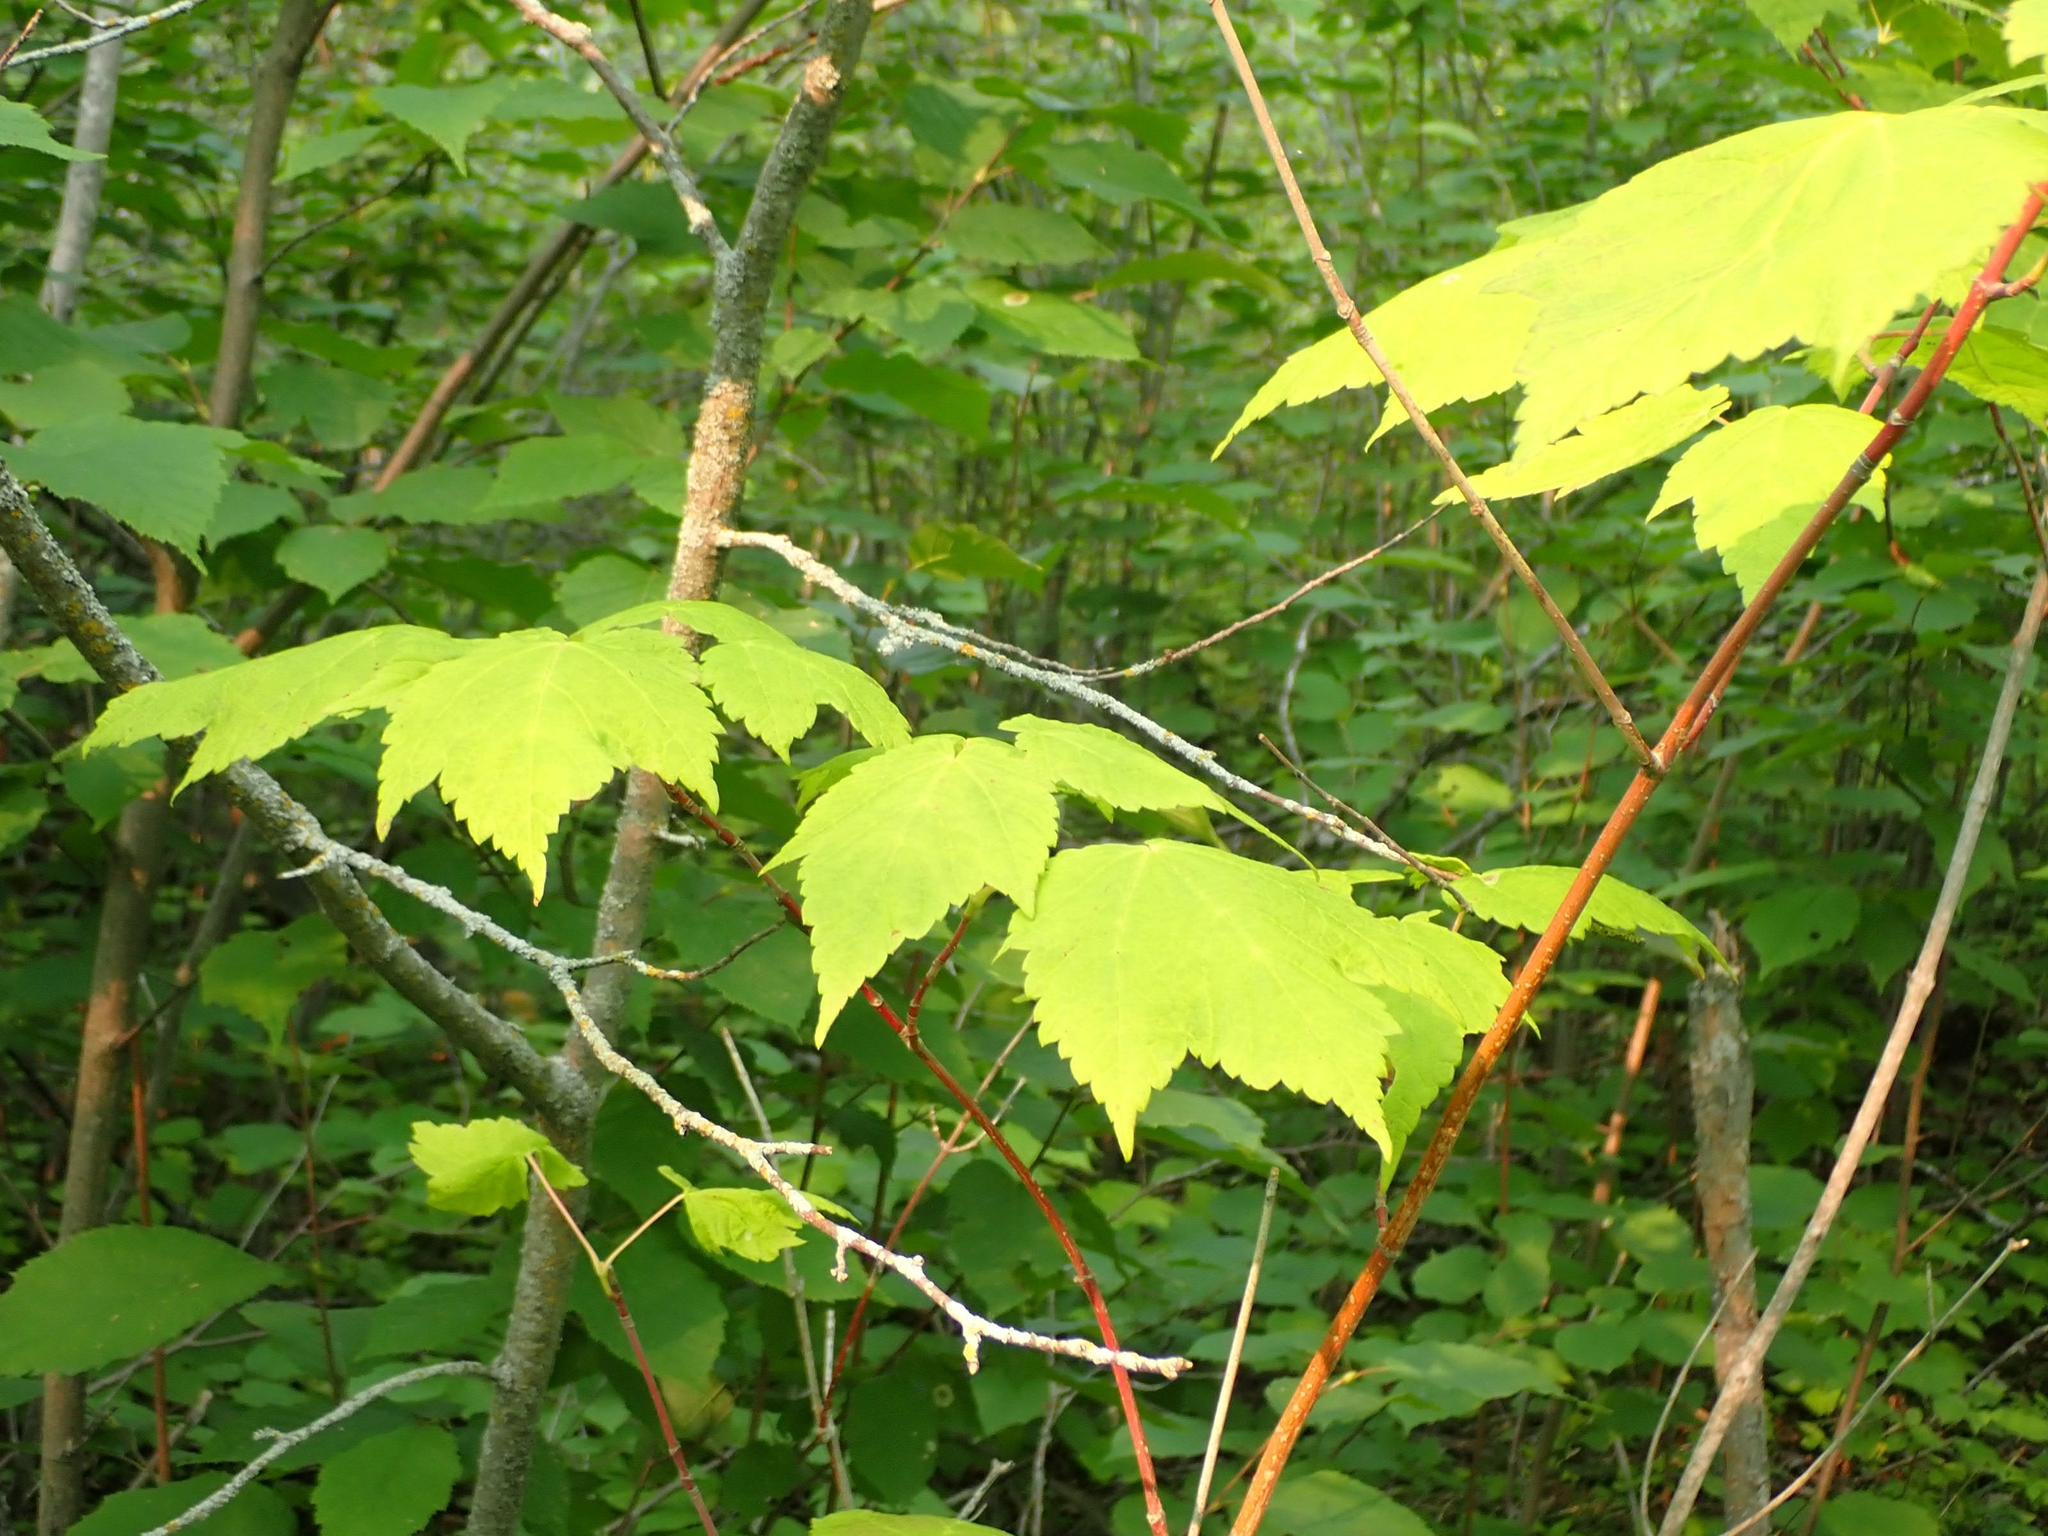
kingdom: Plantae
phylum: Tracheophyta
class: Magnoliopsida
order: Sapindales
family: Sapindaceae
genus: Acer
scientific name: Acer spicatum
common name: Mountain maple
